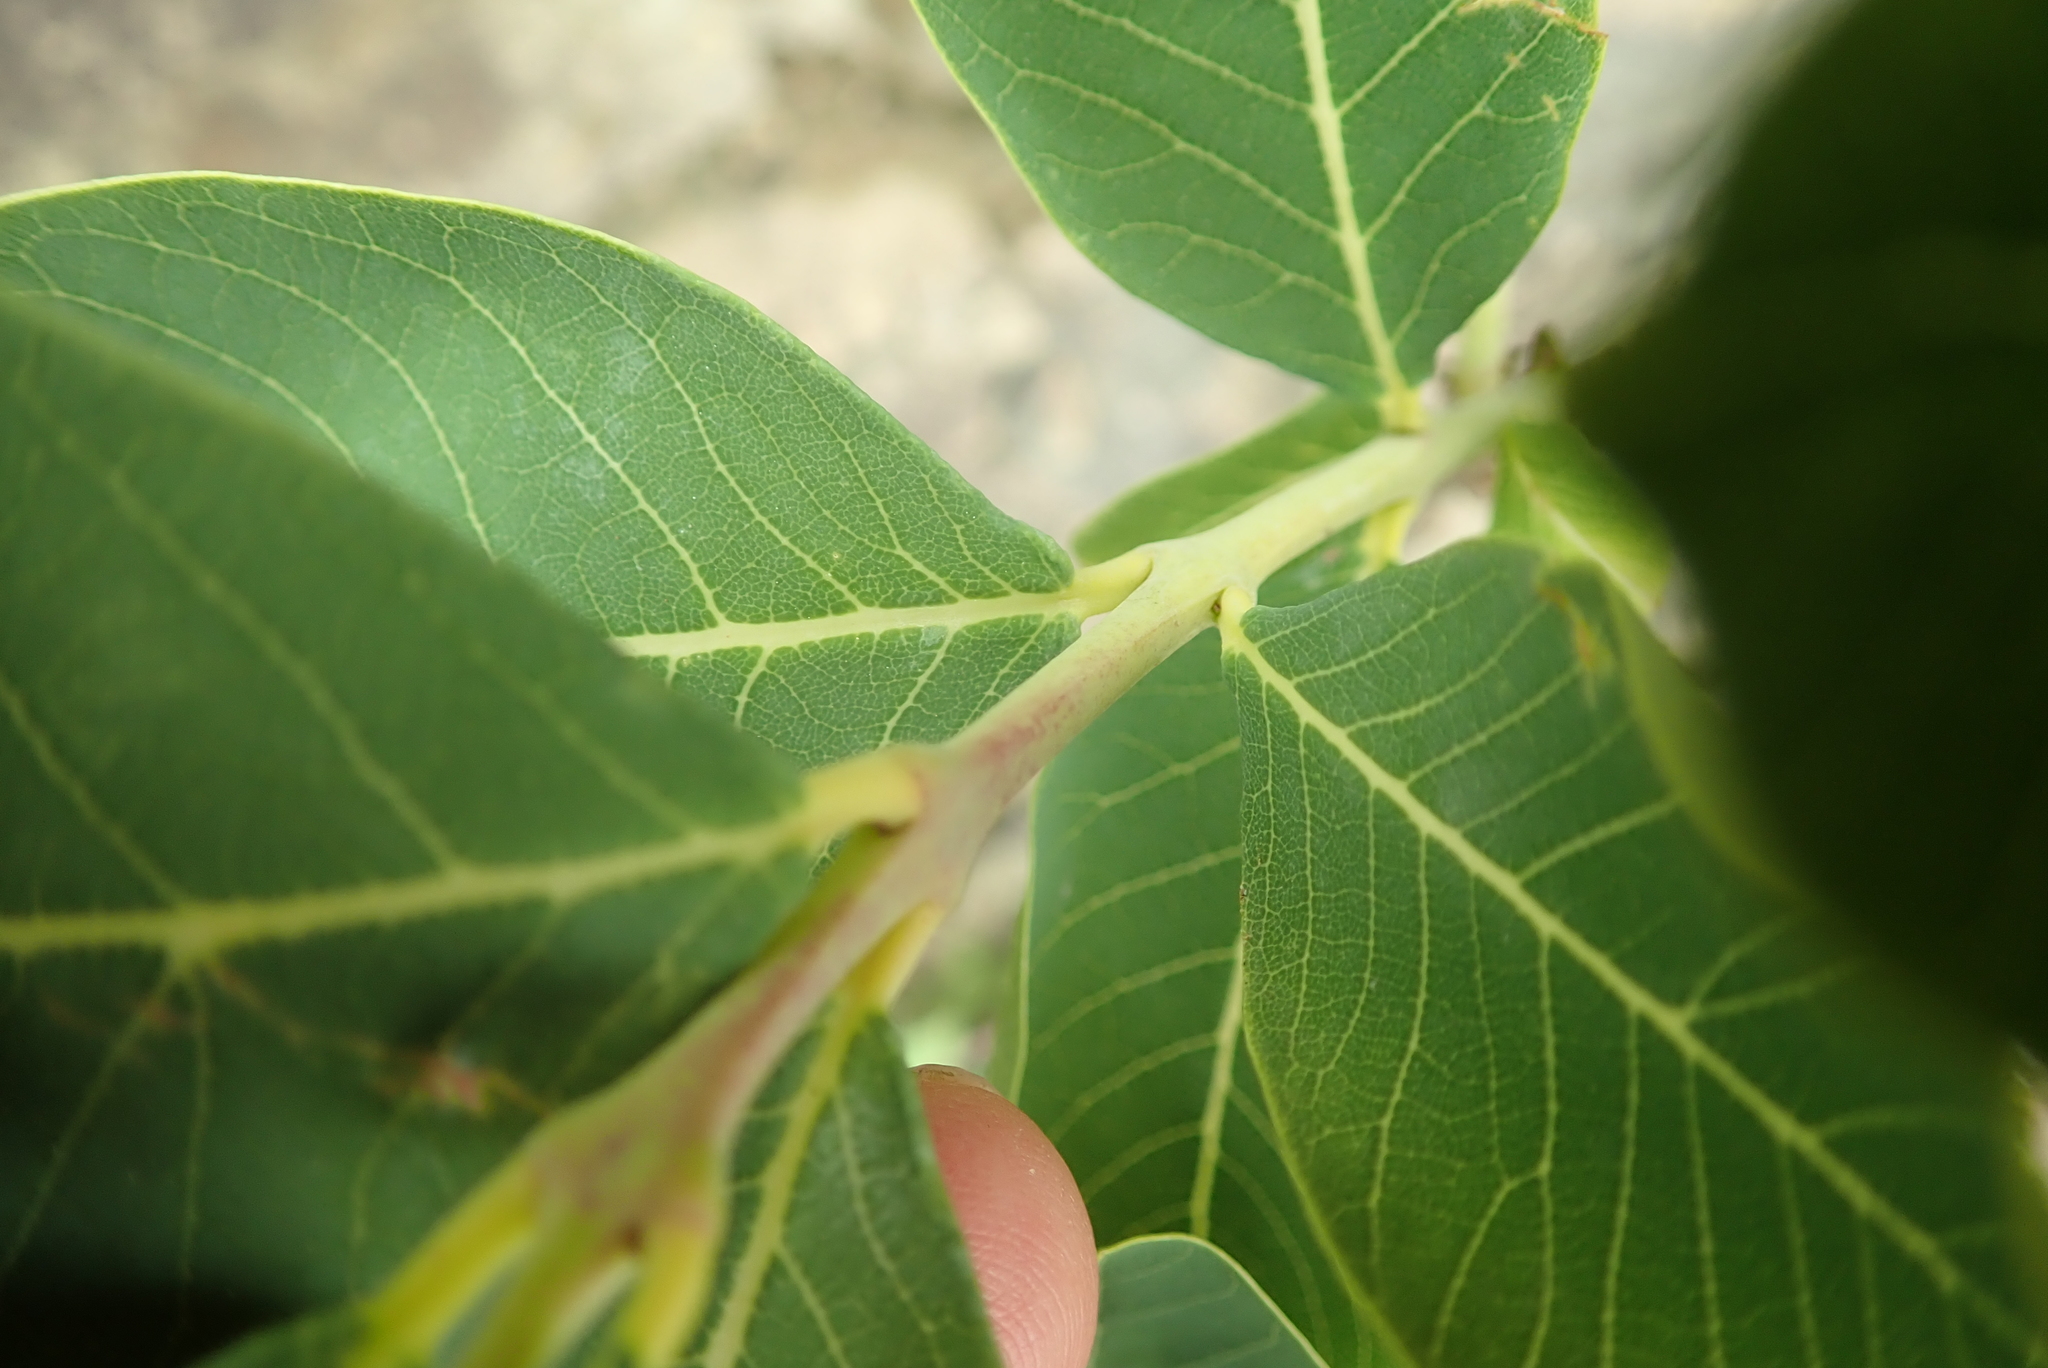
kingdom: Plantae
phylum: Tracheophyta
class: Magnoliopsida
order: Malvales
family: Thymelaeaceae
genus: Dais
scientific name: Dais cotinifolia
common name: Pompon tree
